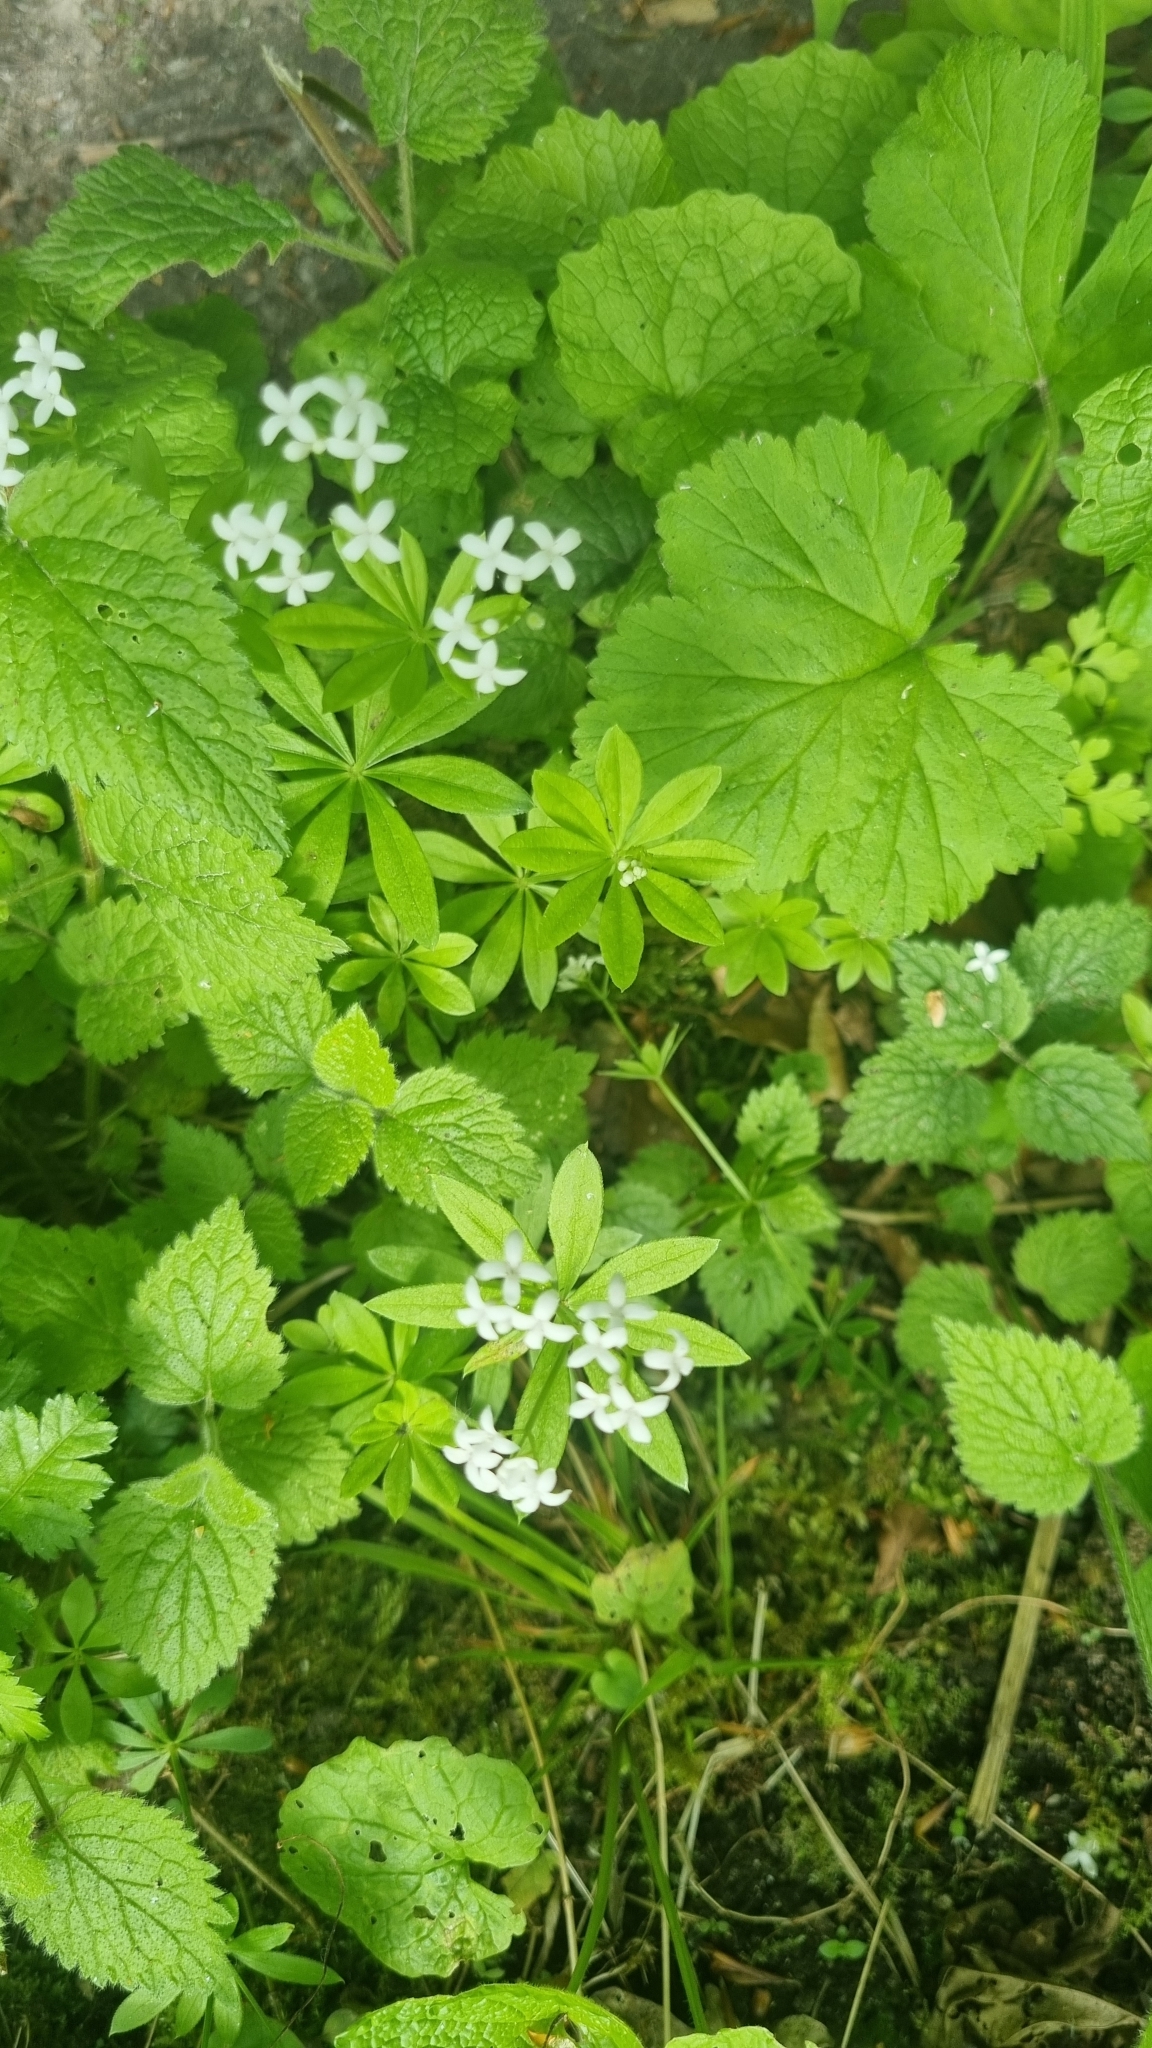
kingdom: Plantae
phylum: Tracheophyta
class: Magnoliopsida
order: Gentianales
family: Rubiaceae
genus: Galium
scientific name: Galium odoratum
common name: Sweet woodruff
